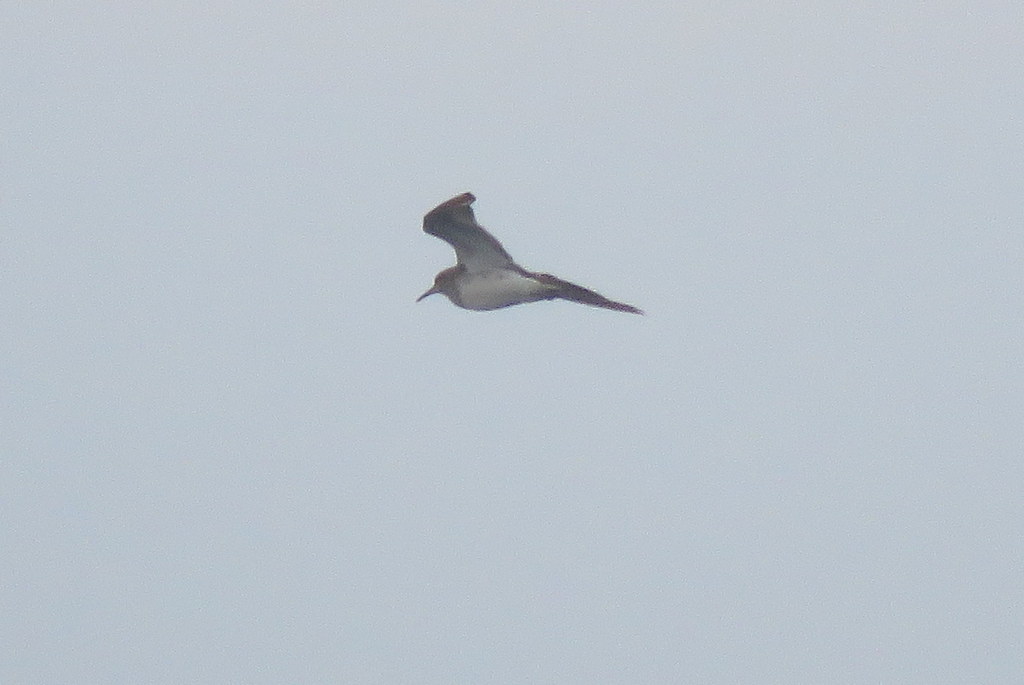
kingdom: Animalia
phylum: Chordata
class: Aves
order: Charadriiformes
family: Scolopacidae
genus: Calidris
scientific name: Calidris melanotos
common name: Pectoral sandpiper
